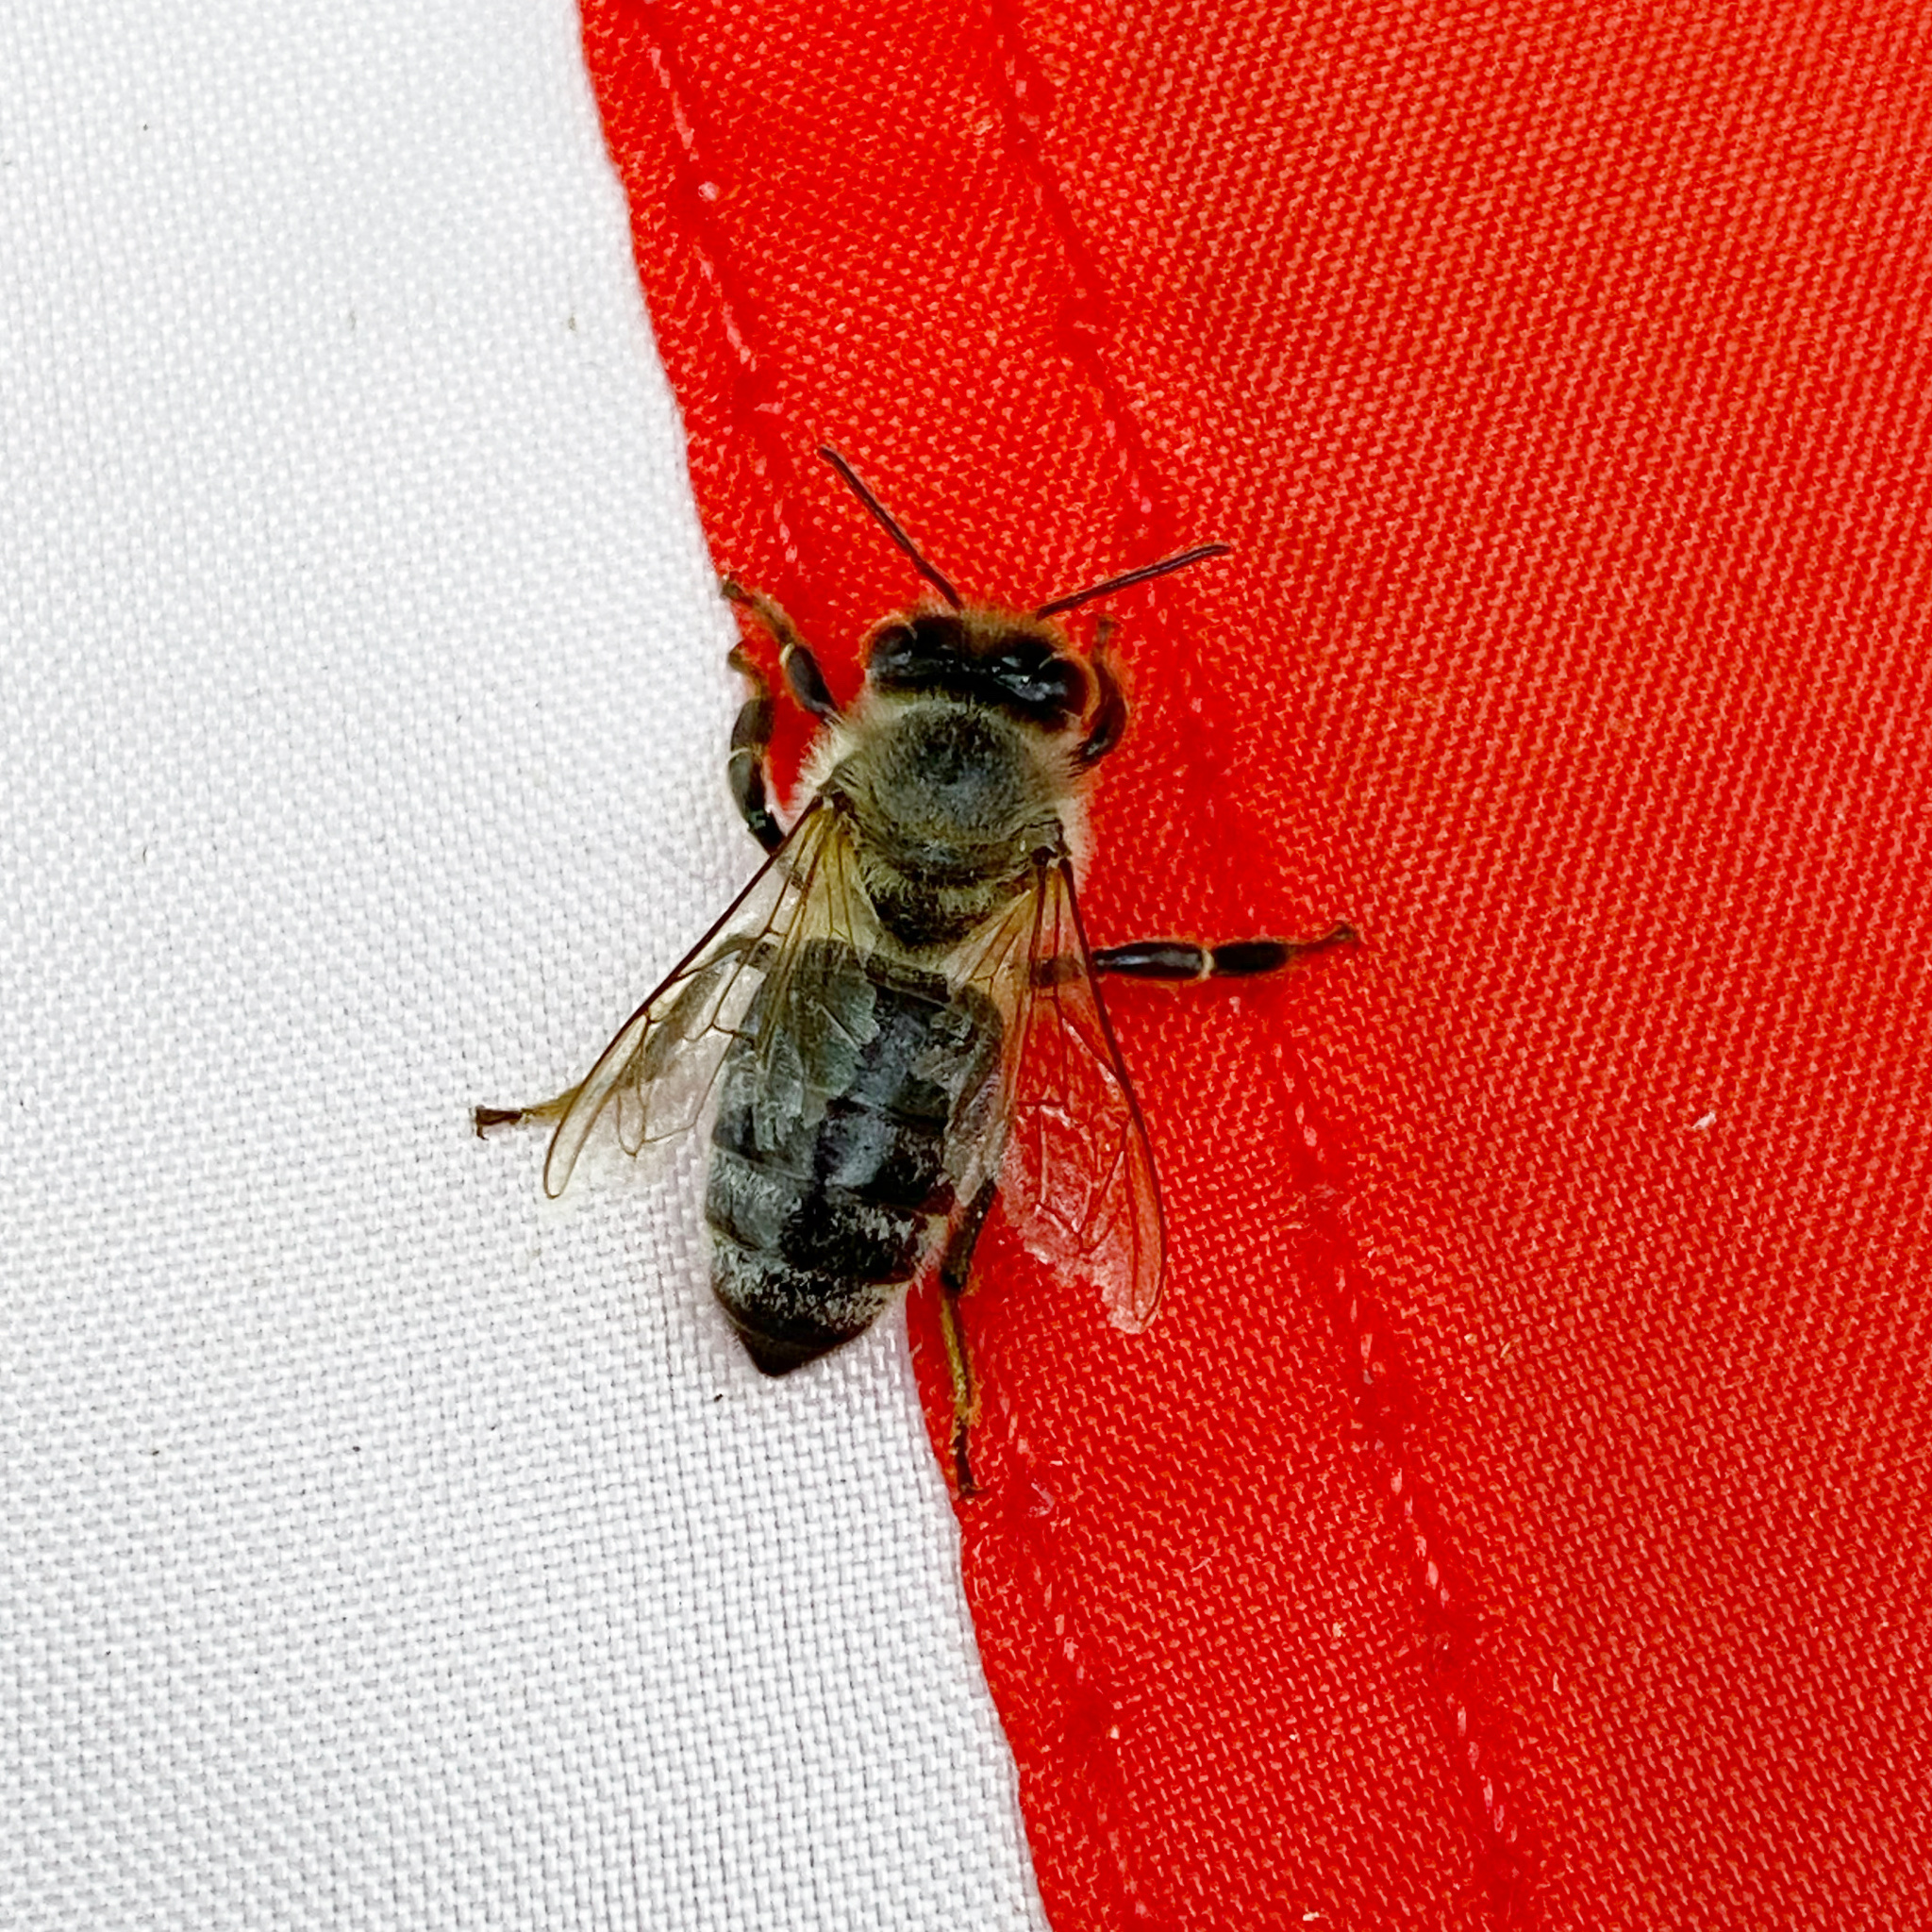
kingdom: Animalia
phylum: Arthropoda
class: Insecta
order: Hymenoptera
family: Apidae
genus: Apis
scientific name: Apis mellifera
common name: Honey bee
